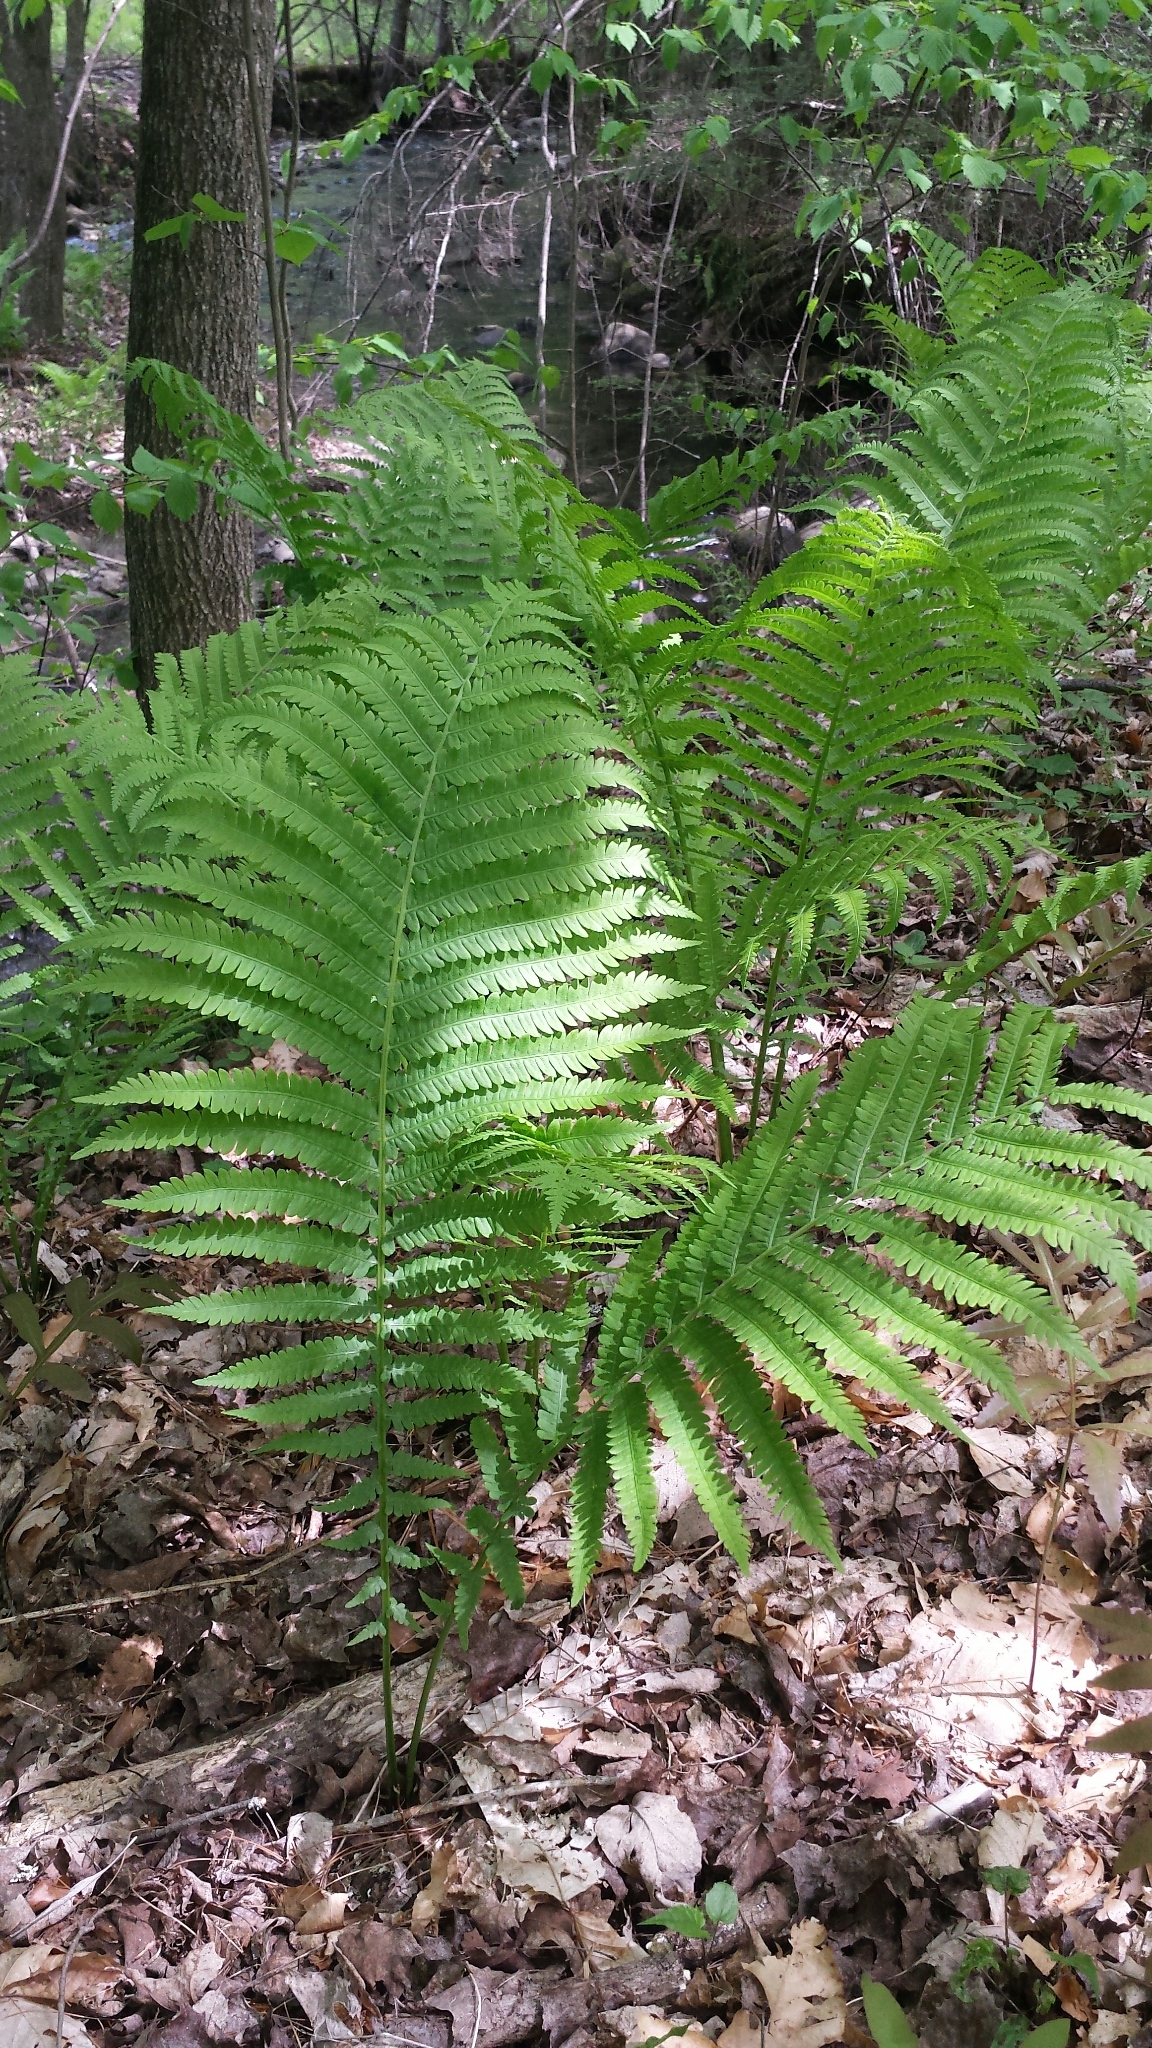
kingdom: Plantae
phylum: Tracheophyta
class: Polypodiopsida
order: Polypodiales
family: Onocleaceae
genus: Matteuccia
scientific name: Matteuccia struthiopteris
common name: Ostrich fern
